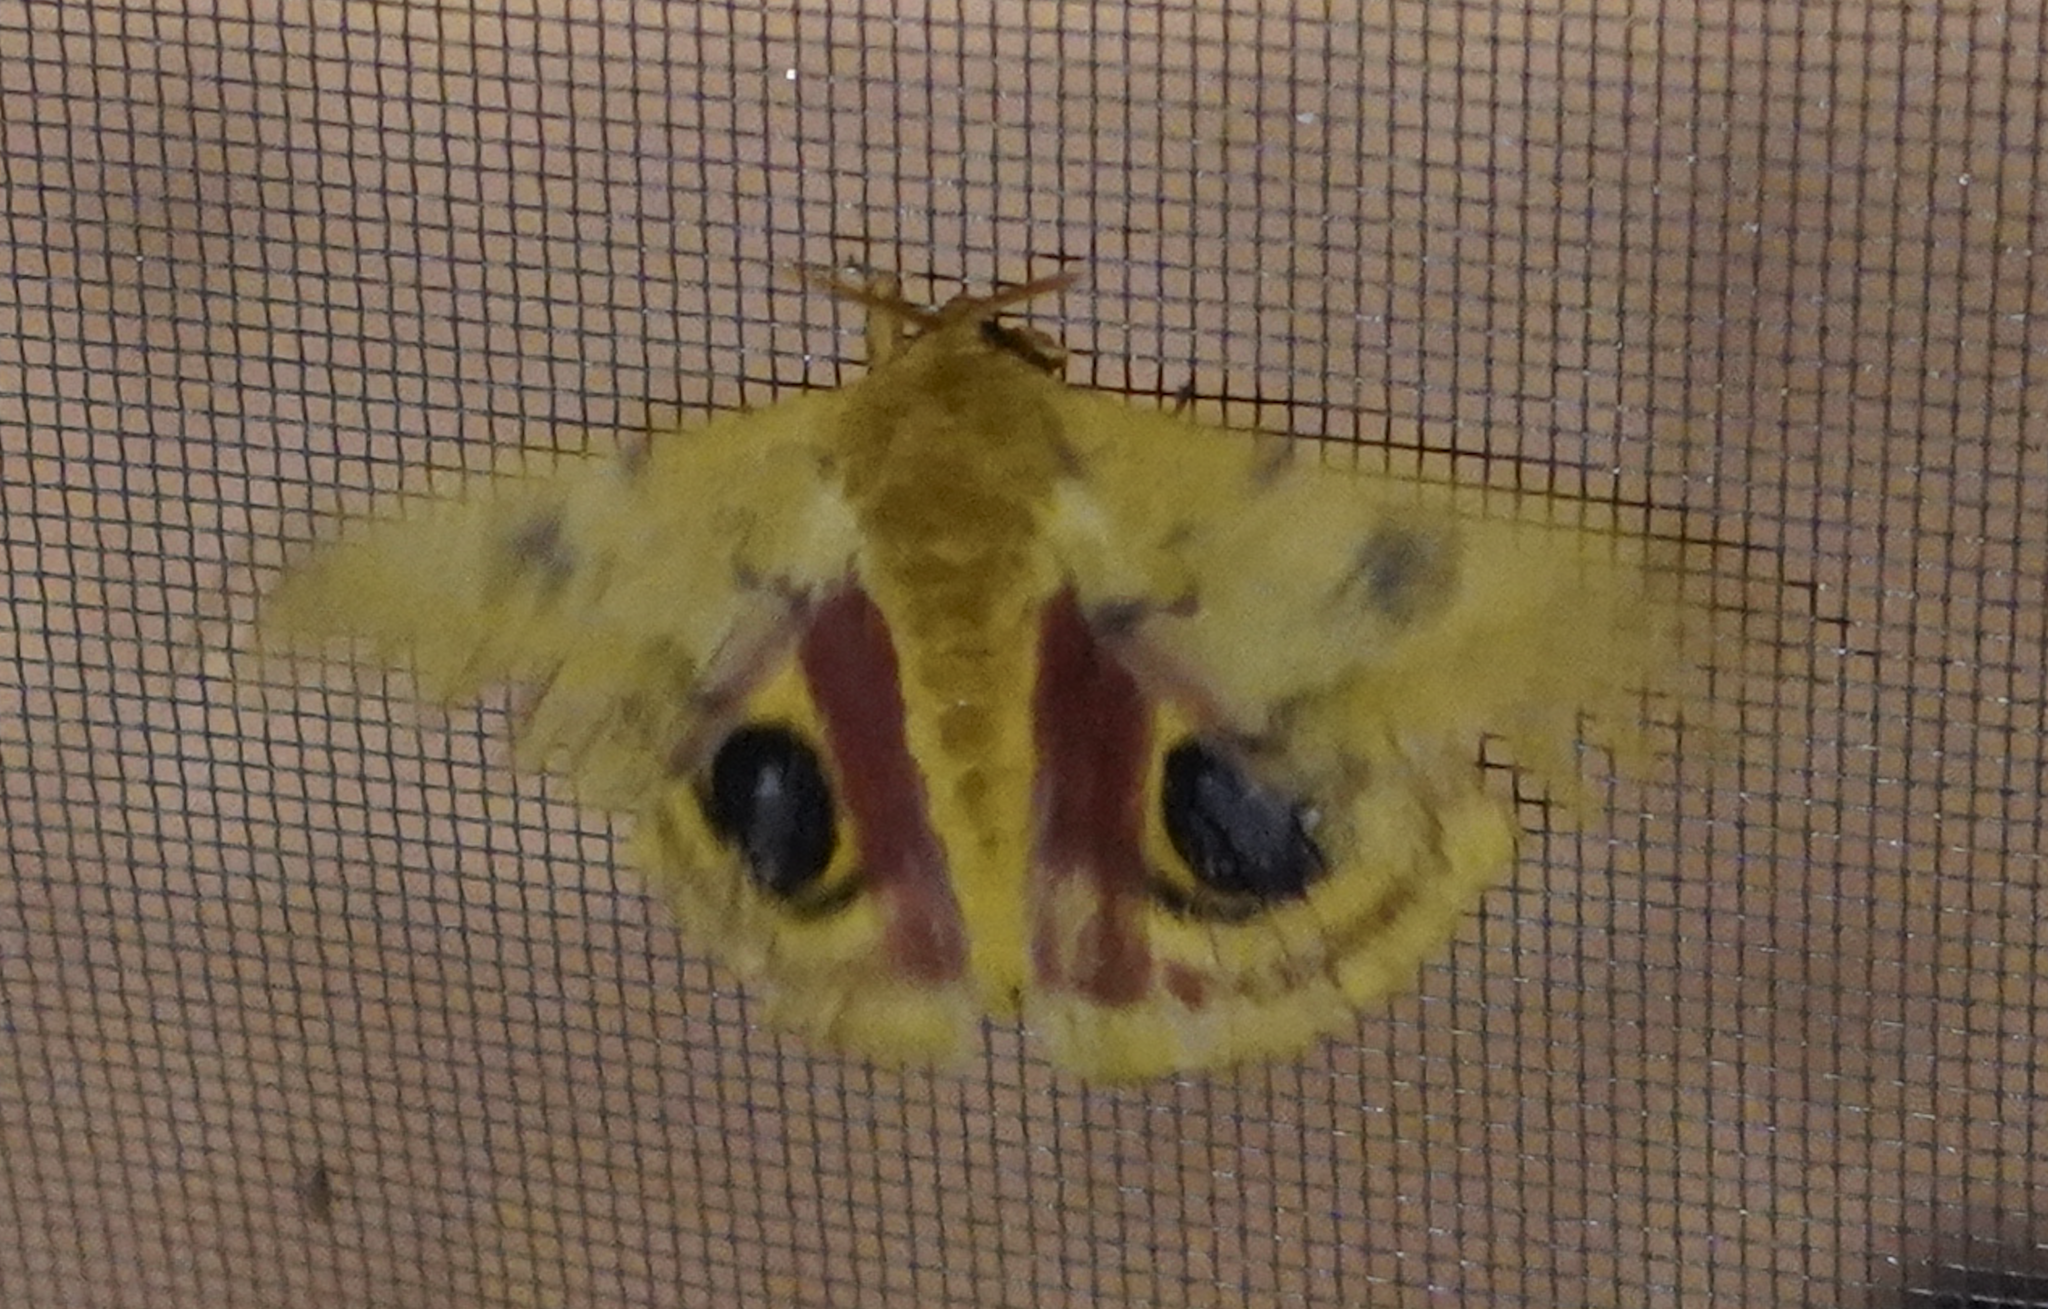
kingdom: Animalia
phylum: Arthropoda
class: Insecta
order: Lepidoptera
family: Saturniidae
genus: Automeris
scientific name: Automeris io
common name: Io moth
